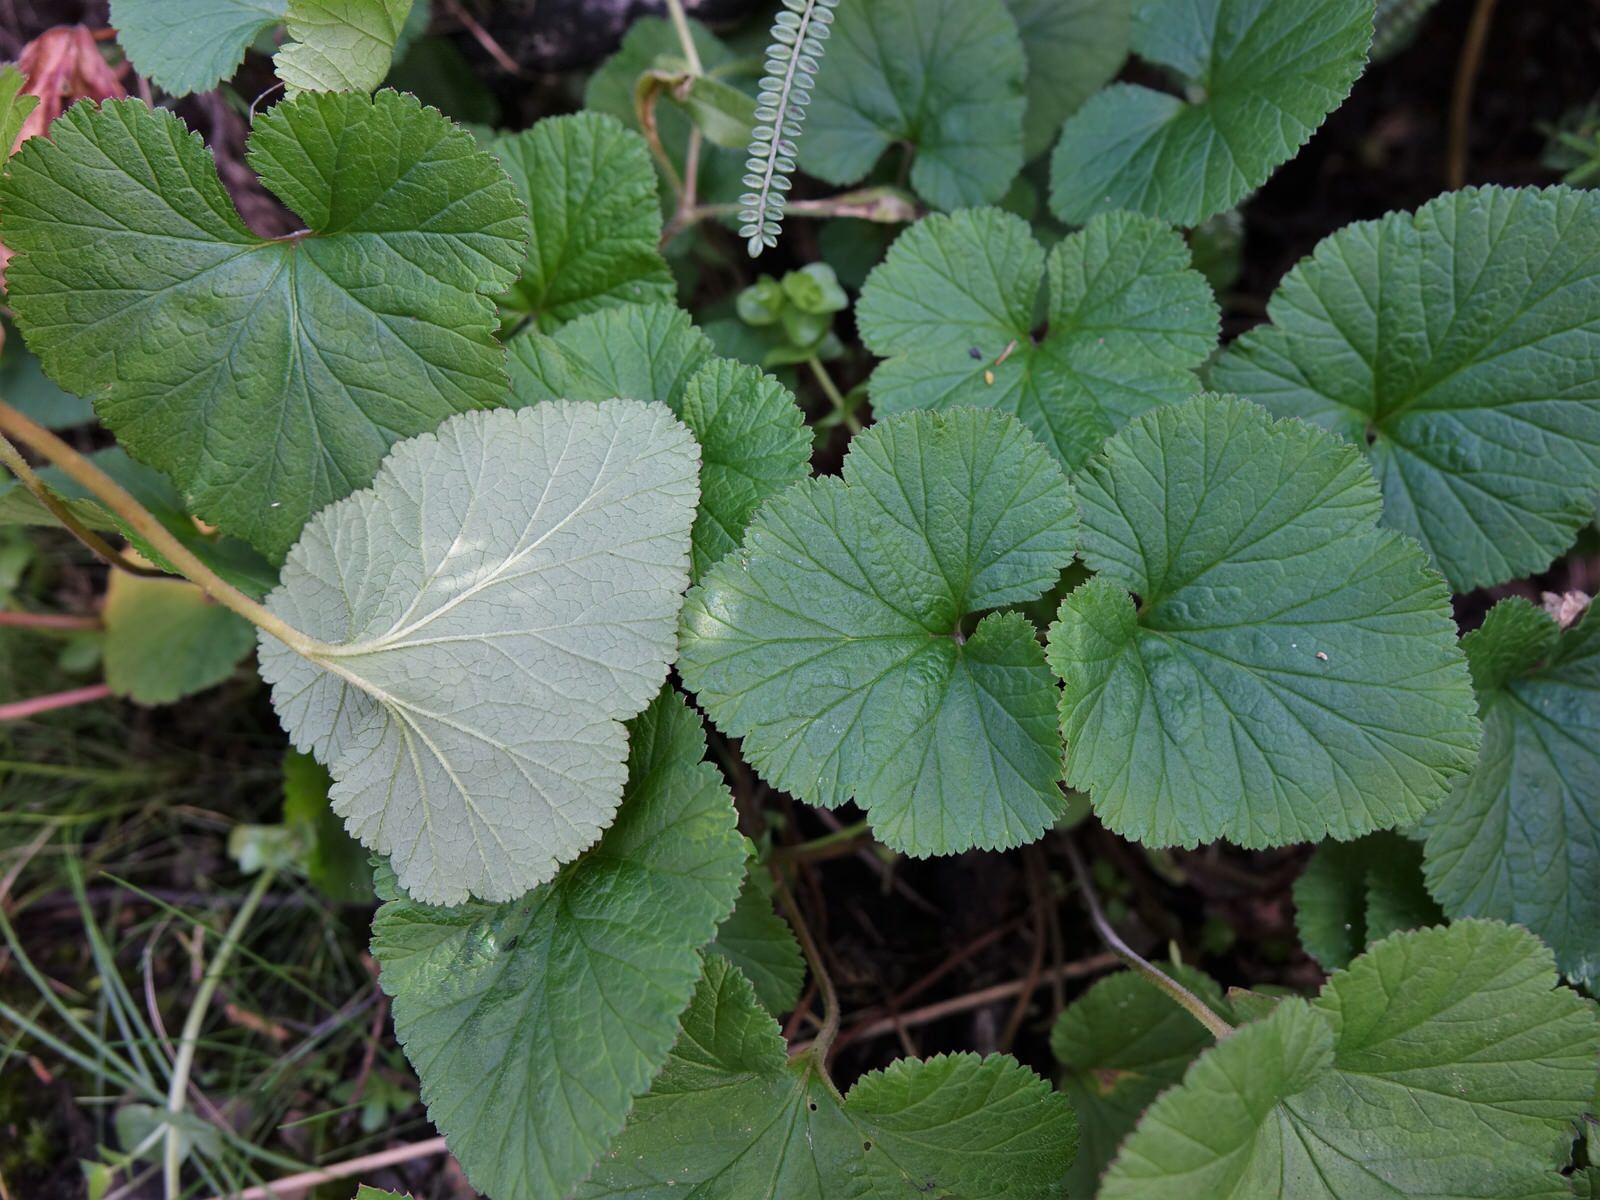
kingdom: Plantae
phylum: Tracheophyta
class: Magnoliopsida
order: Geraniales
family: Geraniaceae
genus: Pelargonium
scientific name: Pelargonium inodorum
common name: Kopata geranium
